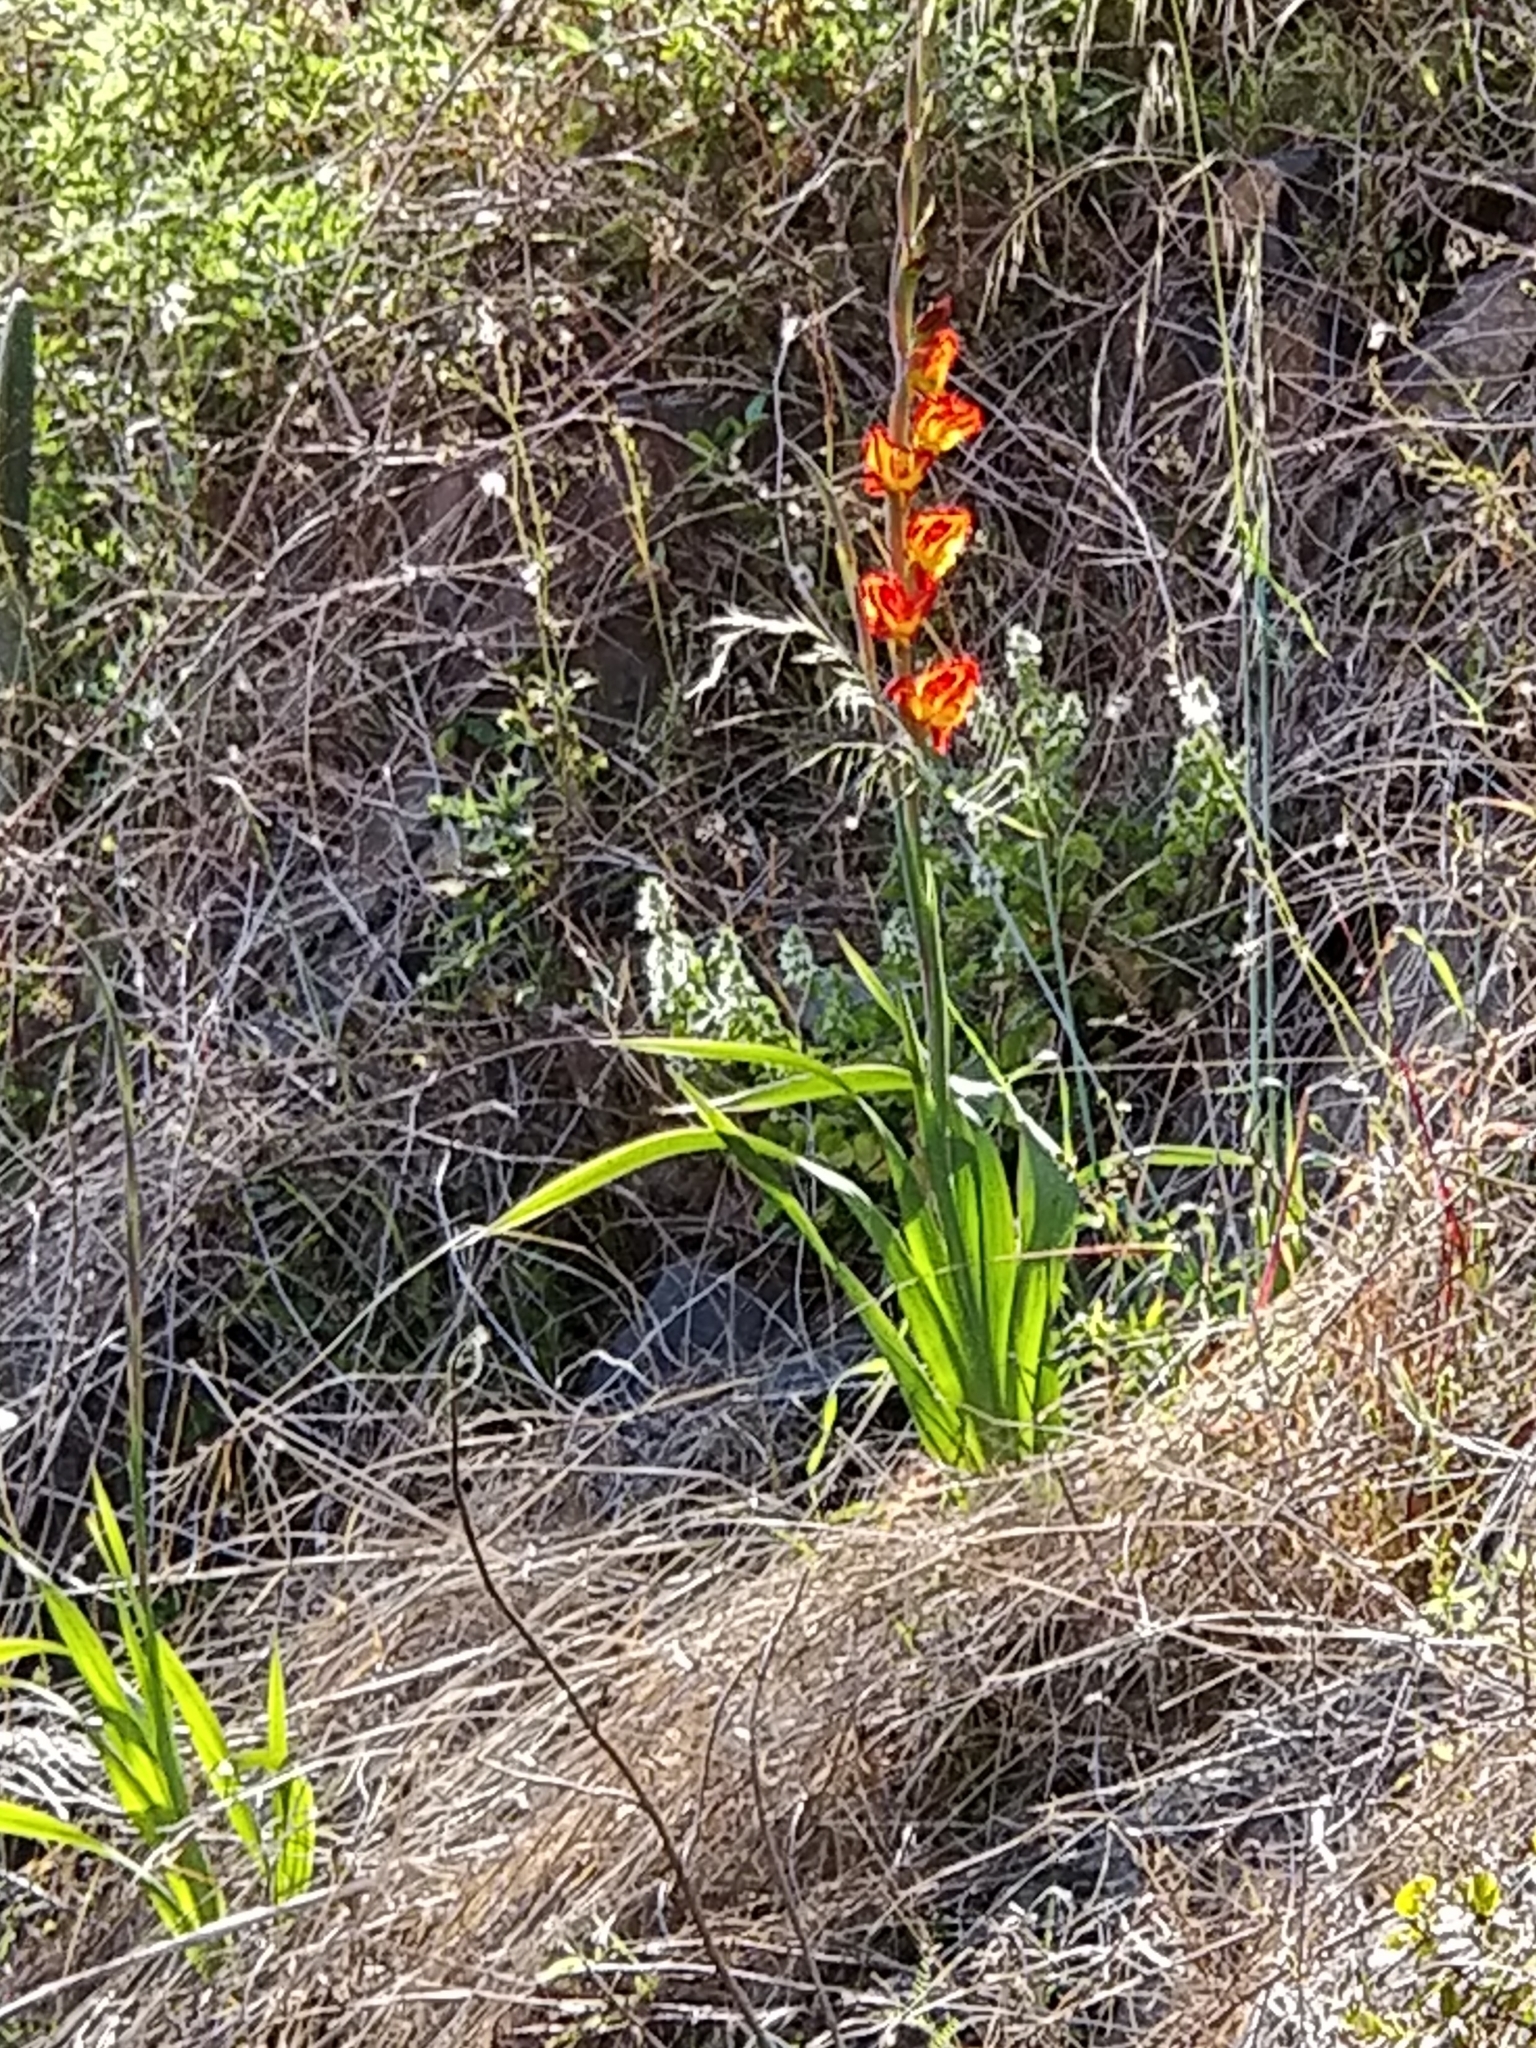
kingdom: Plantae
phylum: Tracheophyta
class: Liliopsida
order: Asparagales
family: Iridaceae
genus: Gladiolus
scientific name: Gladiolus dalenii
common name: Cornflag
